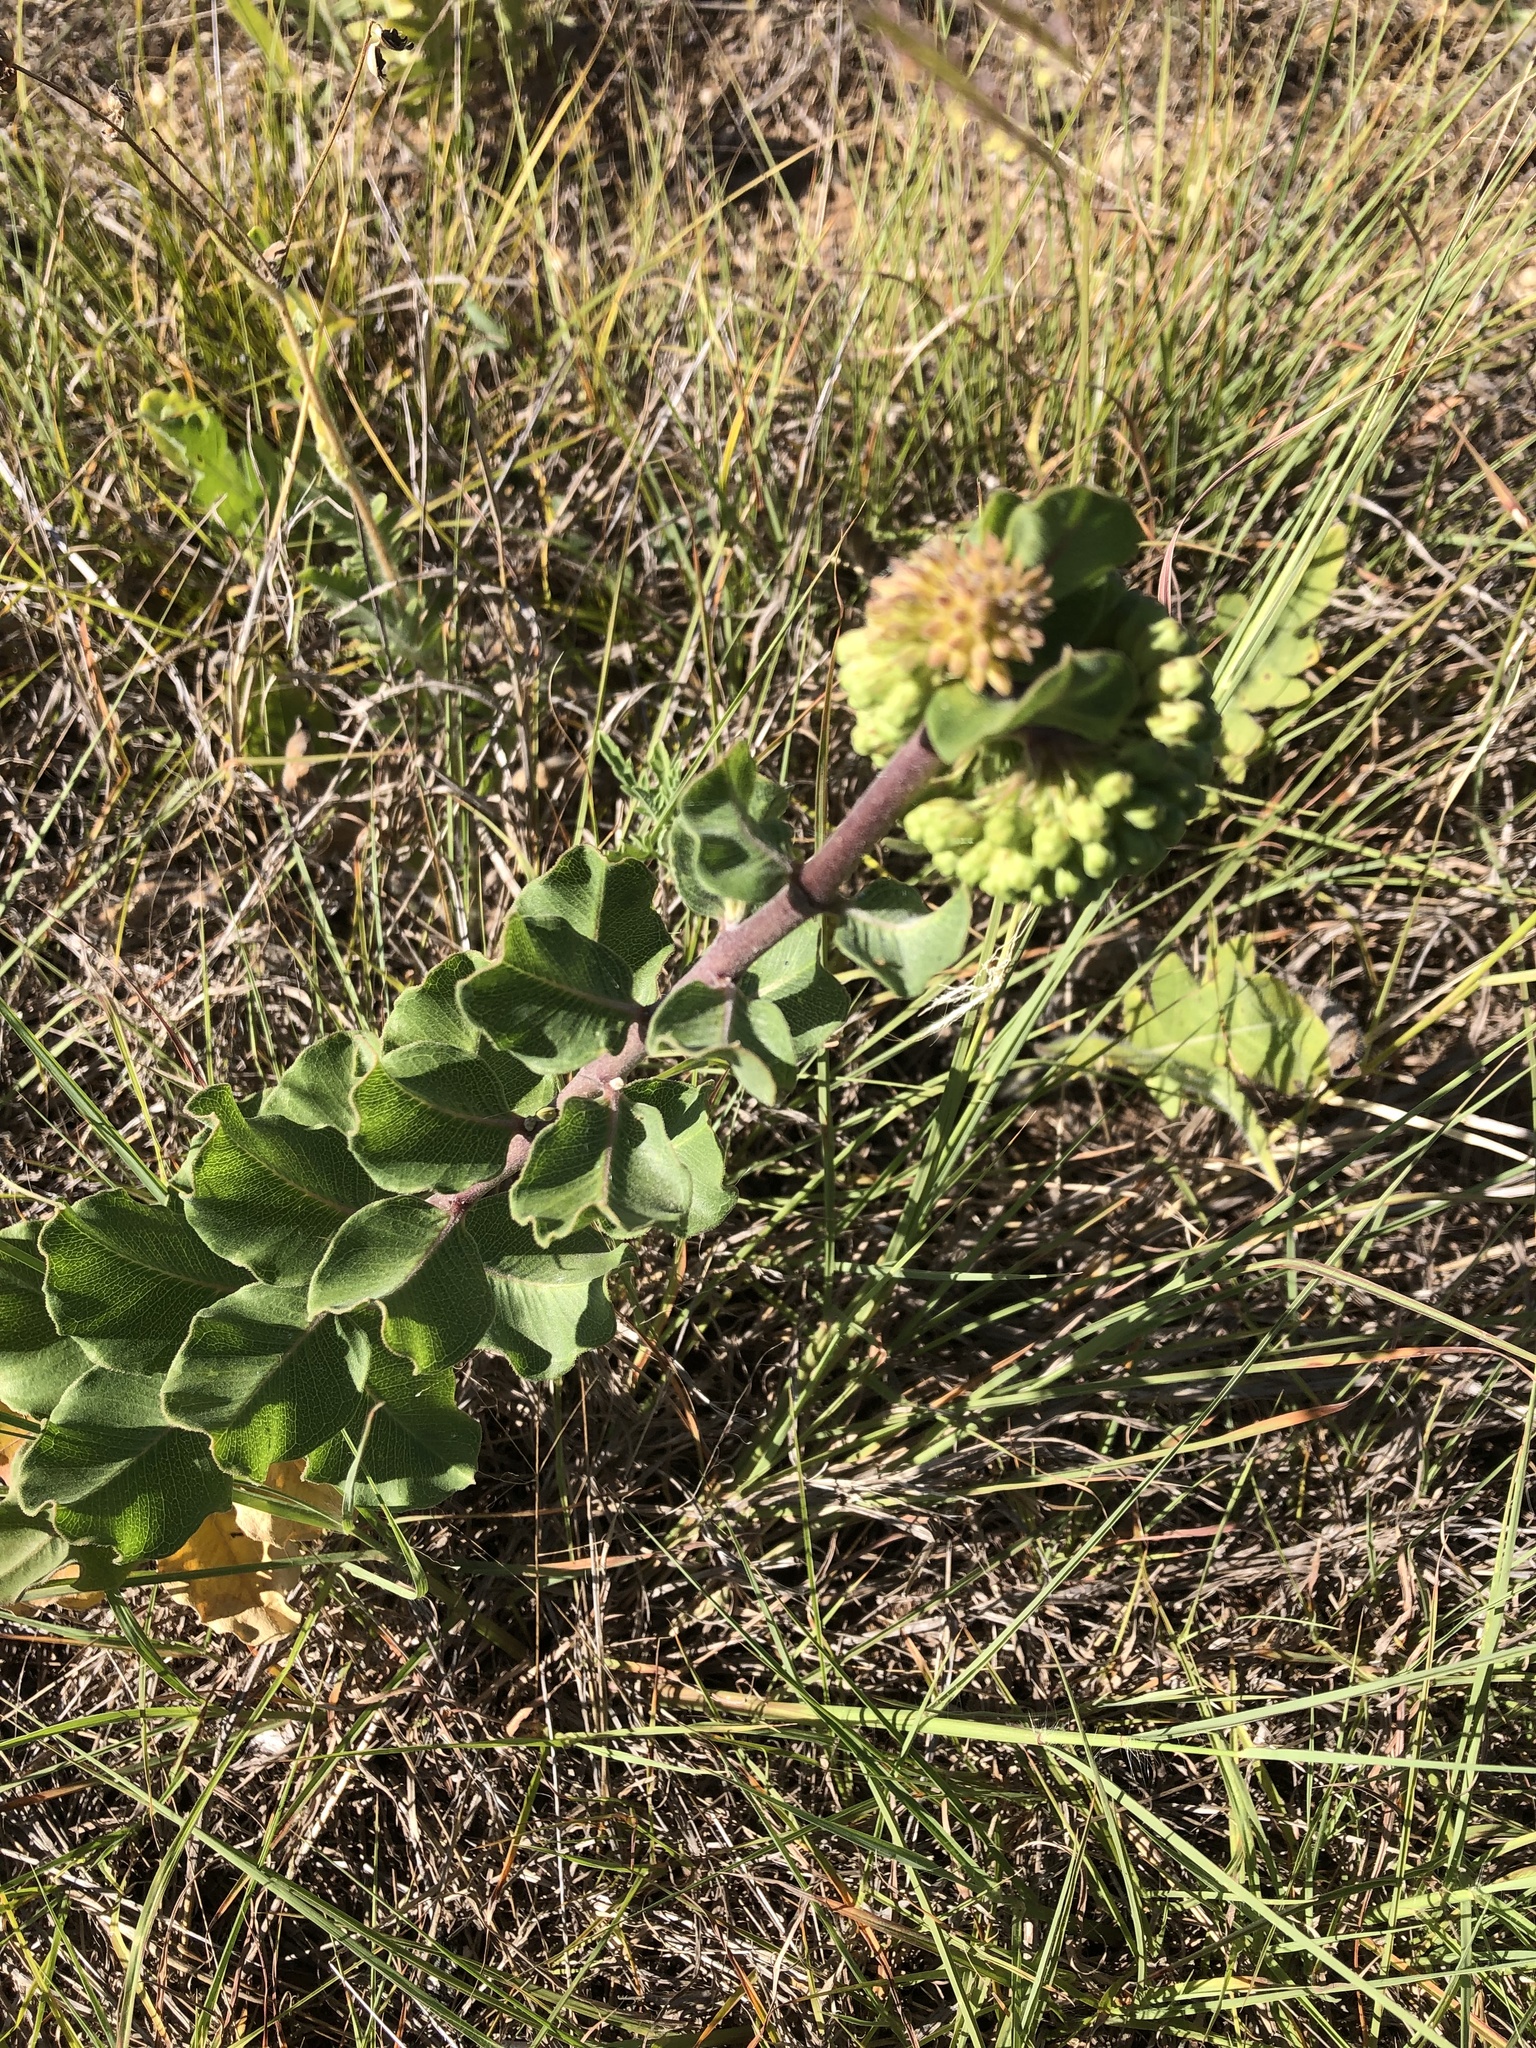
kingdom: Plantae
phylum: Tracheophyta
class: Magnoliopsida
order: Gentianales
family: Apocynaceae
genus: Asclepias
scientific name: Asclepias viridiflora
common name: Green comet milkweed
